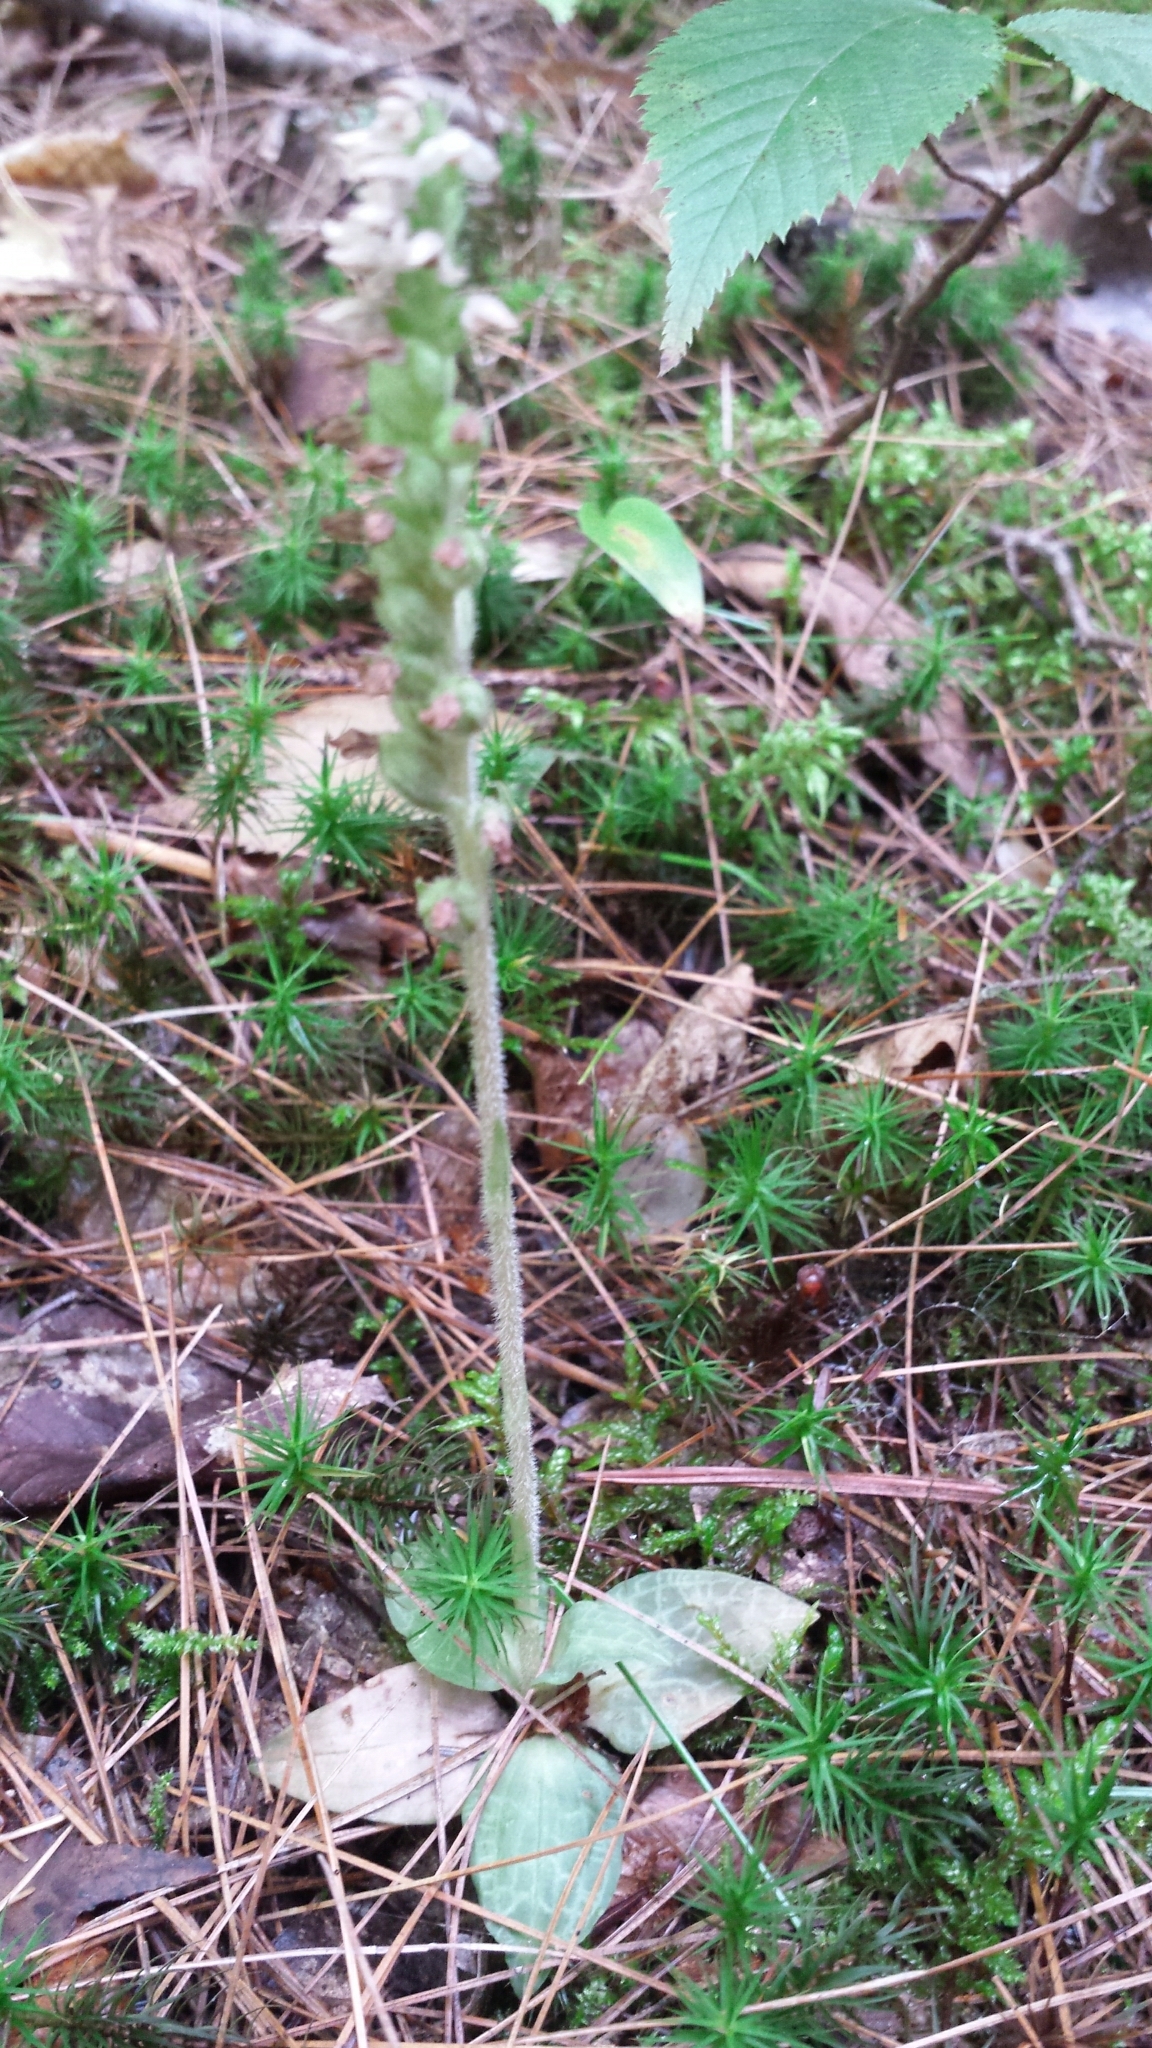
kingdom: Plantae
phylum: Tracheophyta
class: Liliopsida
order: Asparagales
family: Orchidaceae
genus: Goodyera
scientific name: Goodyera tesselata
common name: Checkered rattlesnake-plantain
